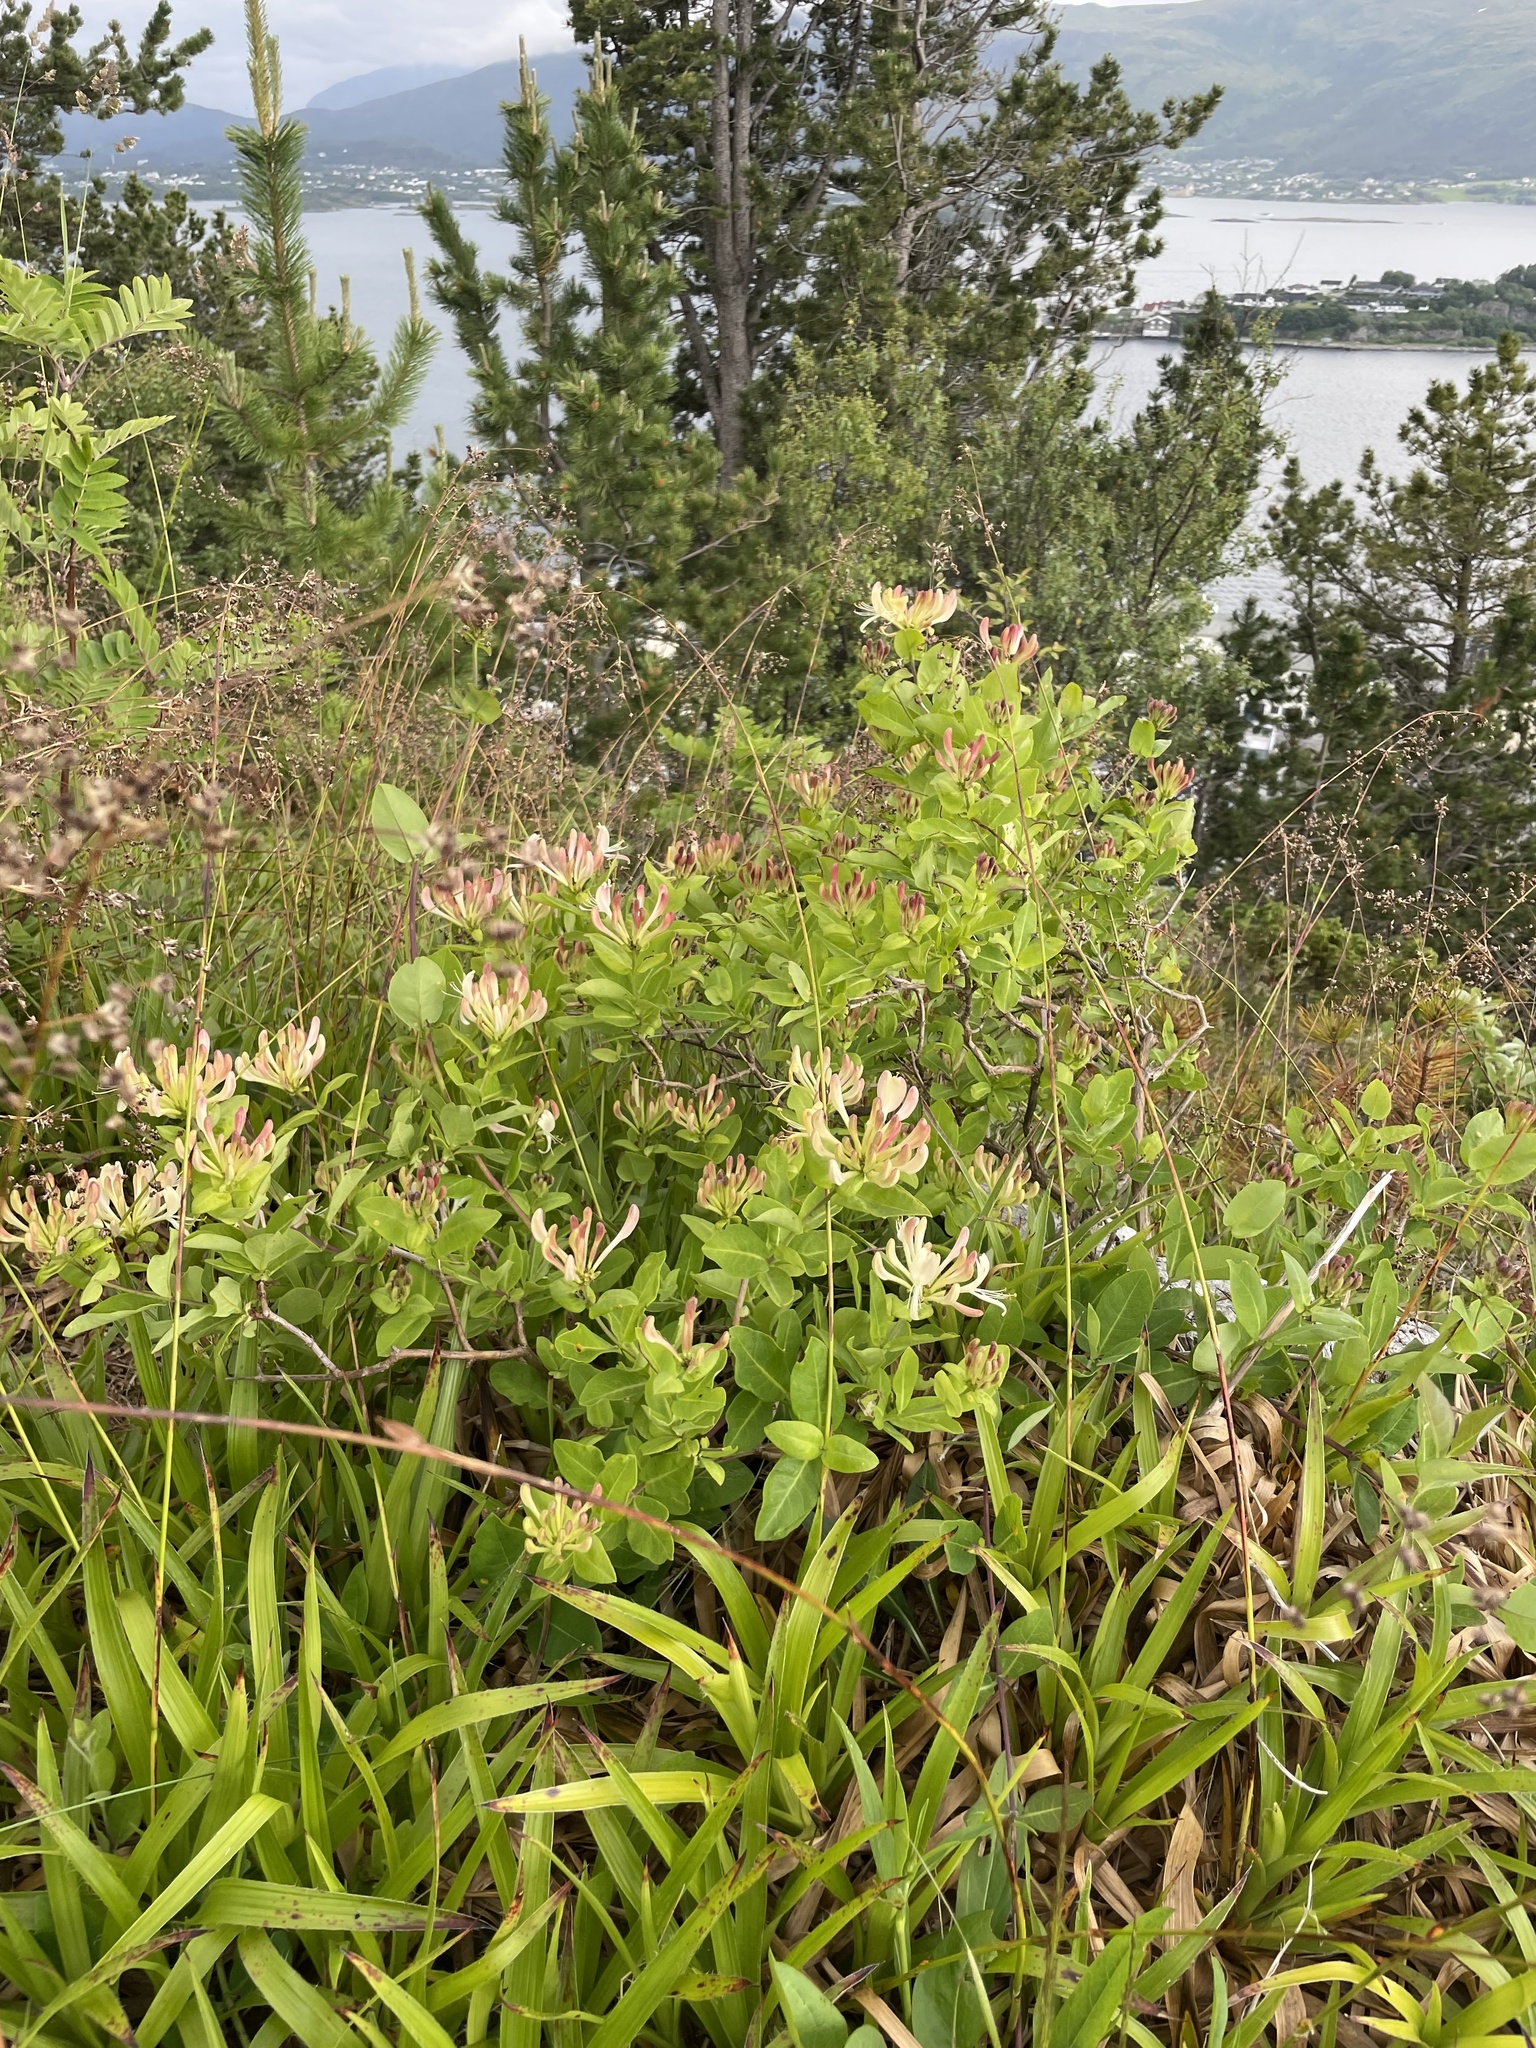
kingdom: Plantae
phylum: Tracheophyta
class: Magnoliopsida
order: Dipsacales
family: Caprifoliaceae
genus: Lonicera
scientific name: Lonicera periclymenum
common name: European honeysuckle
